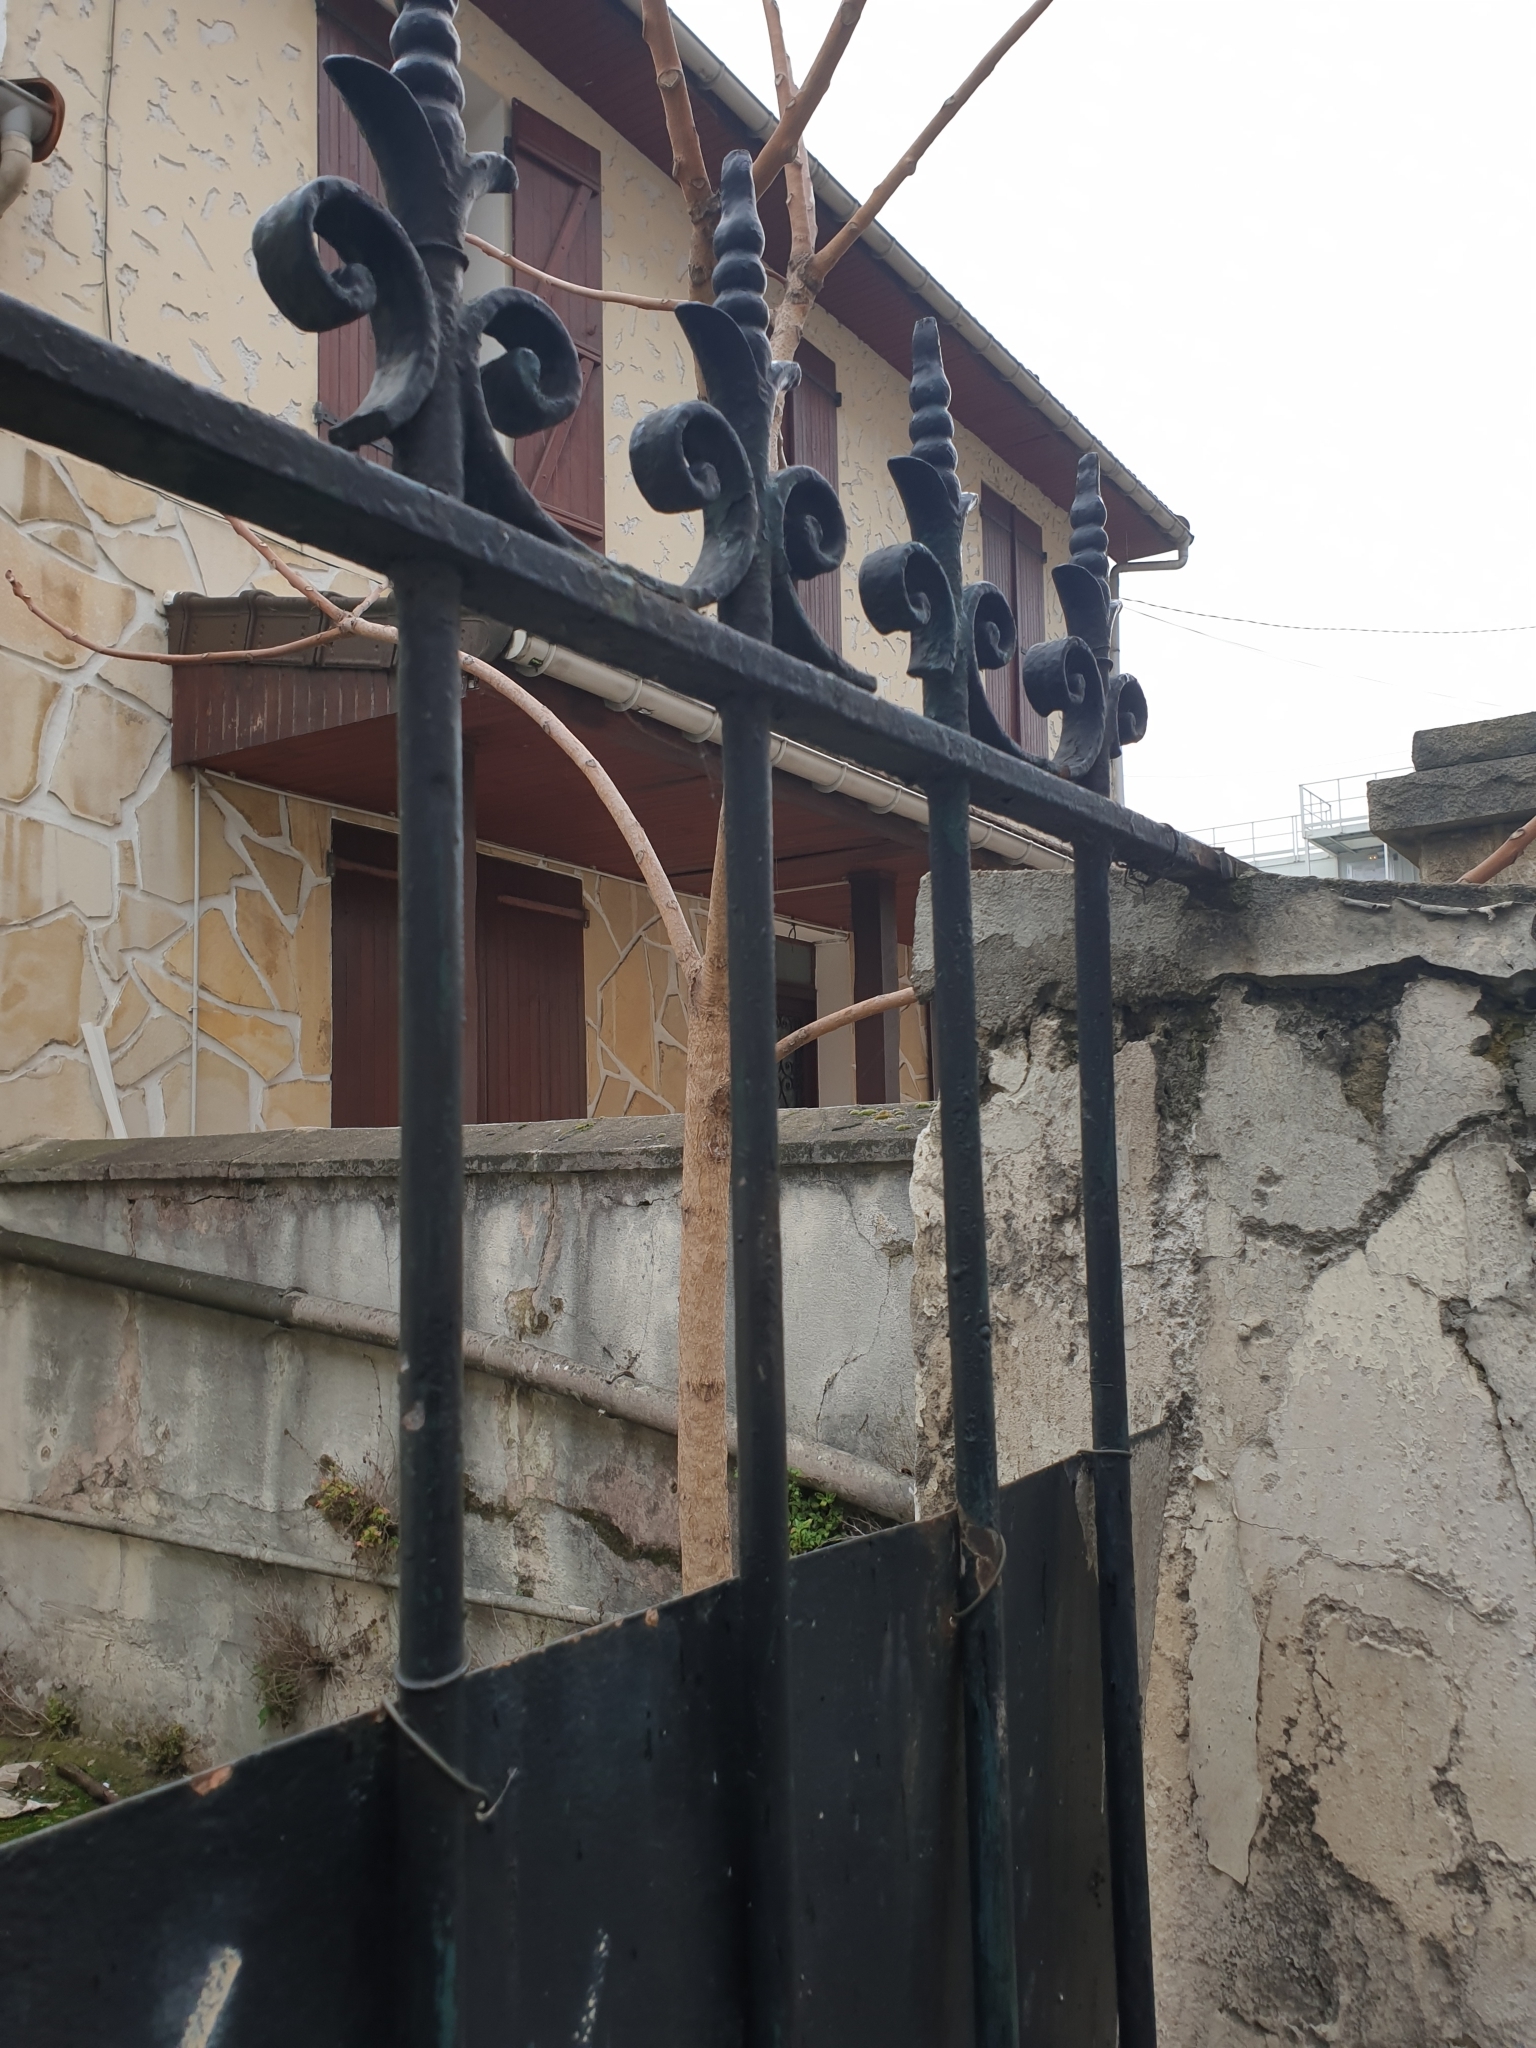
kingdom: Plantae
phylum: Tracheophyta
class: Magnoliopsida
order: Sapindales
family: Simaroubaceae
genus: Ailanthus
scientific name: Ailanthus altissima
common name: Tree-of-heaven
